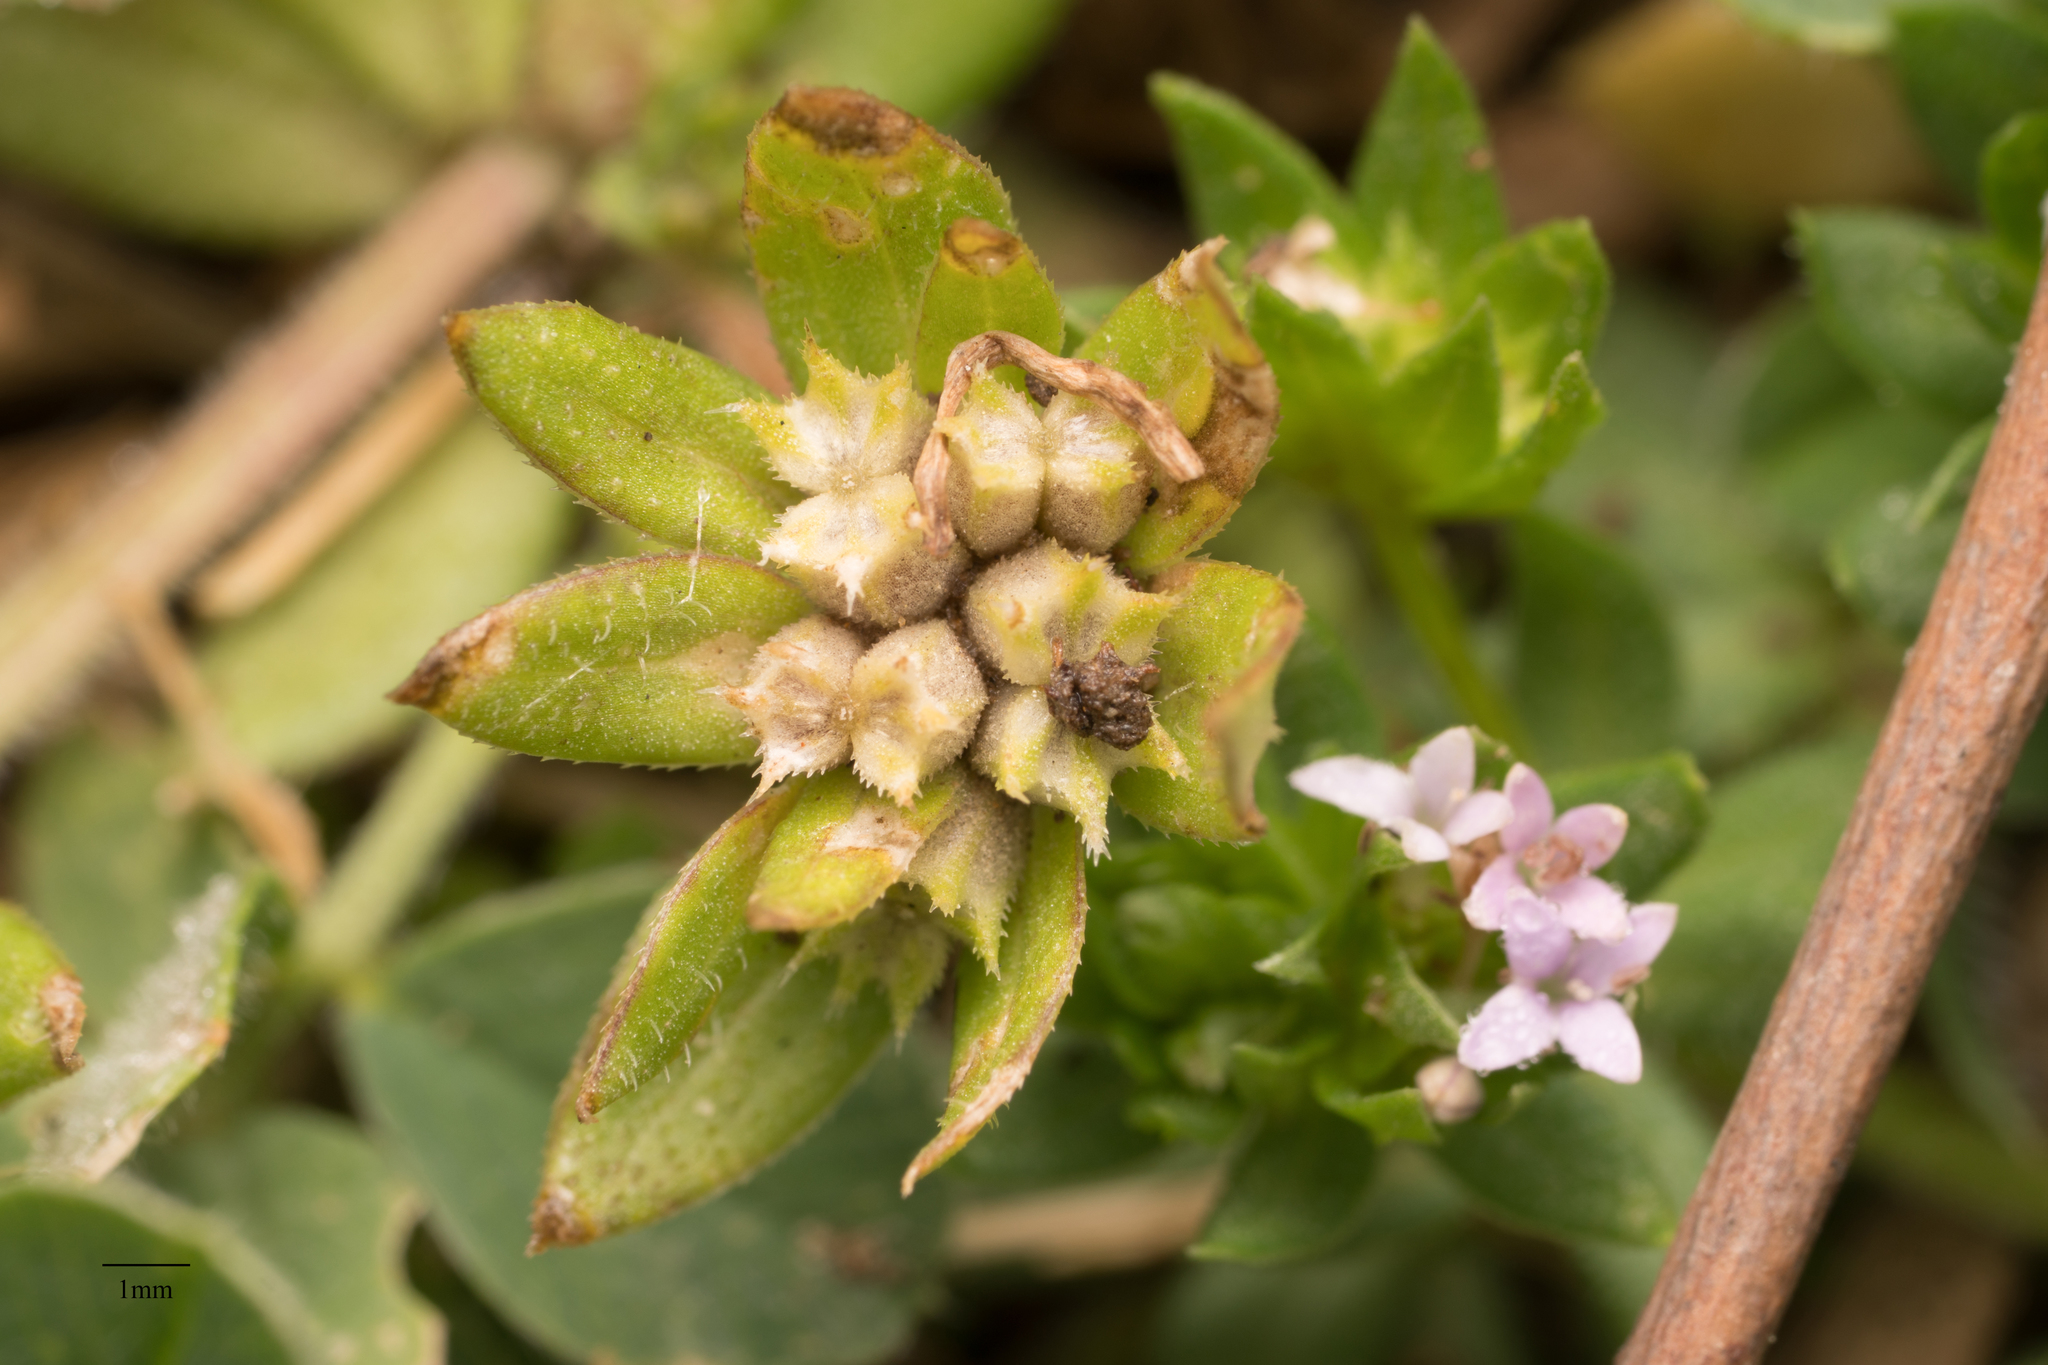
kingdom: Plantae
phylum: Tracheophyta
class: Magnoliopsida
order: Gentianales
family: Rubiaceae
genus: Sherardia
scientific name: Sherardia arvensis
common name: Field madder
